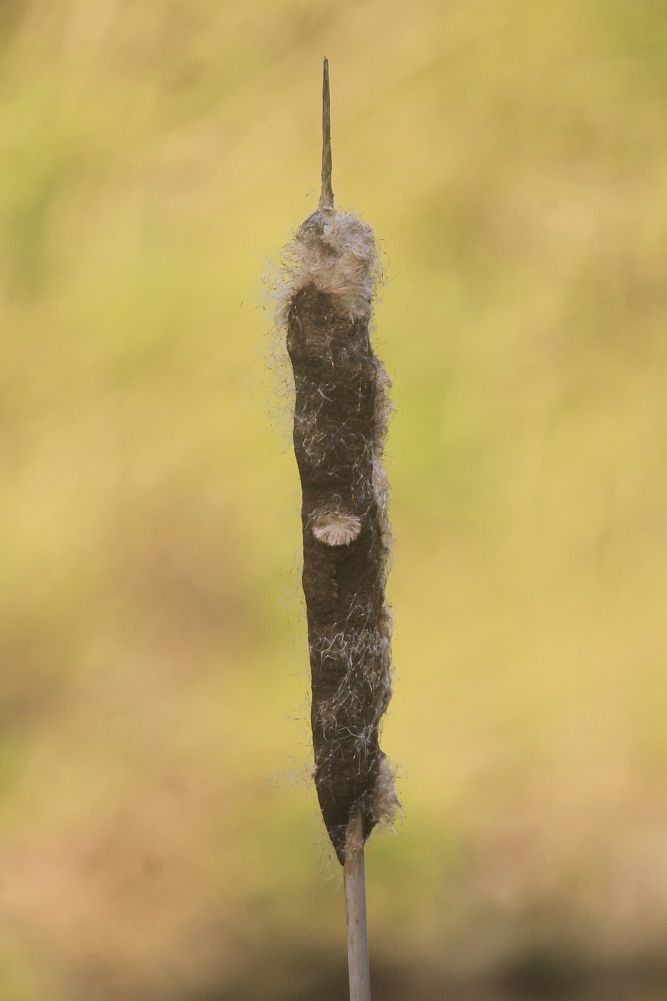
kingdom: Plantae
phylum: Tracheophyta
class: Liliopsida
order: Poales
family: Typhaceae
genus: Typha
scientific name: Typha latifolia
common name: Broadleaf cattail
